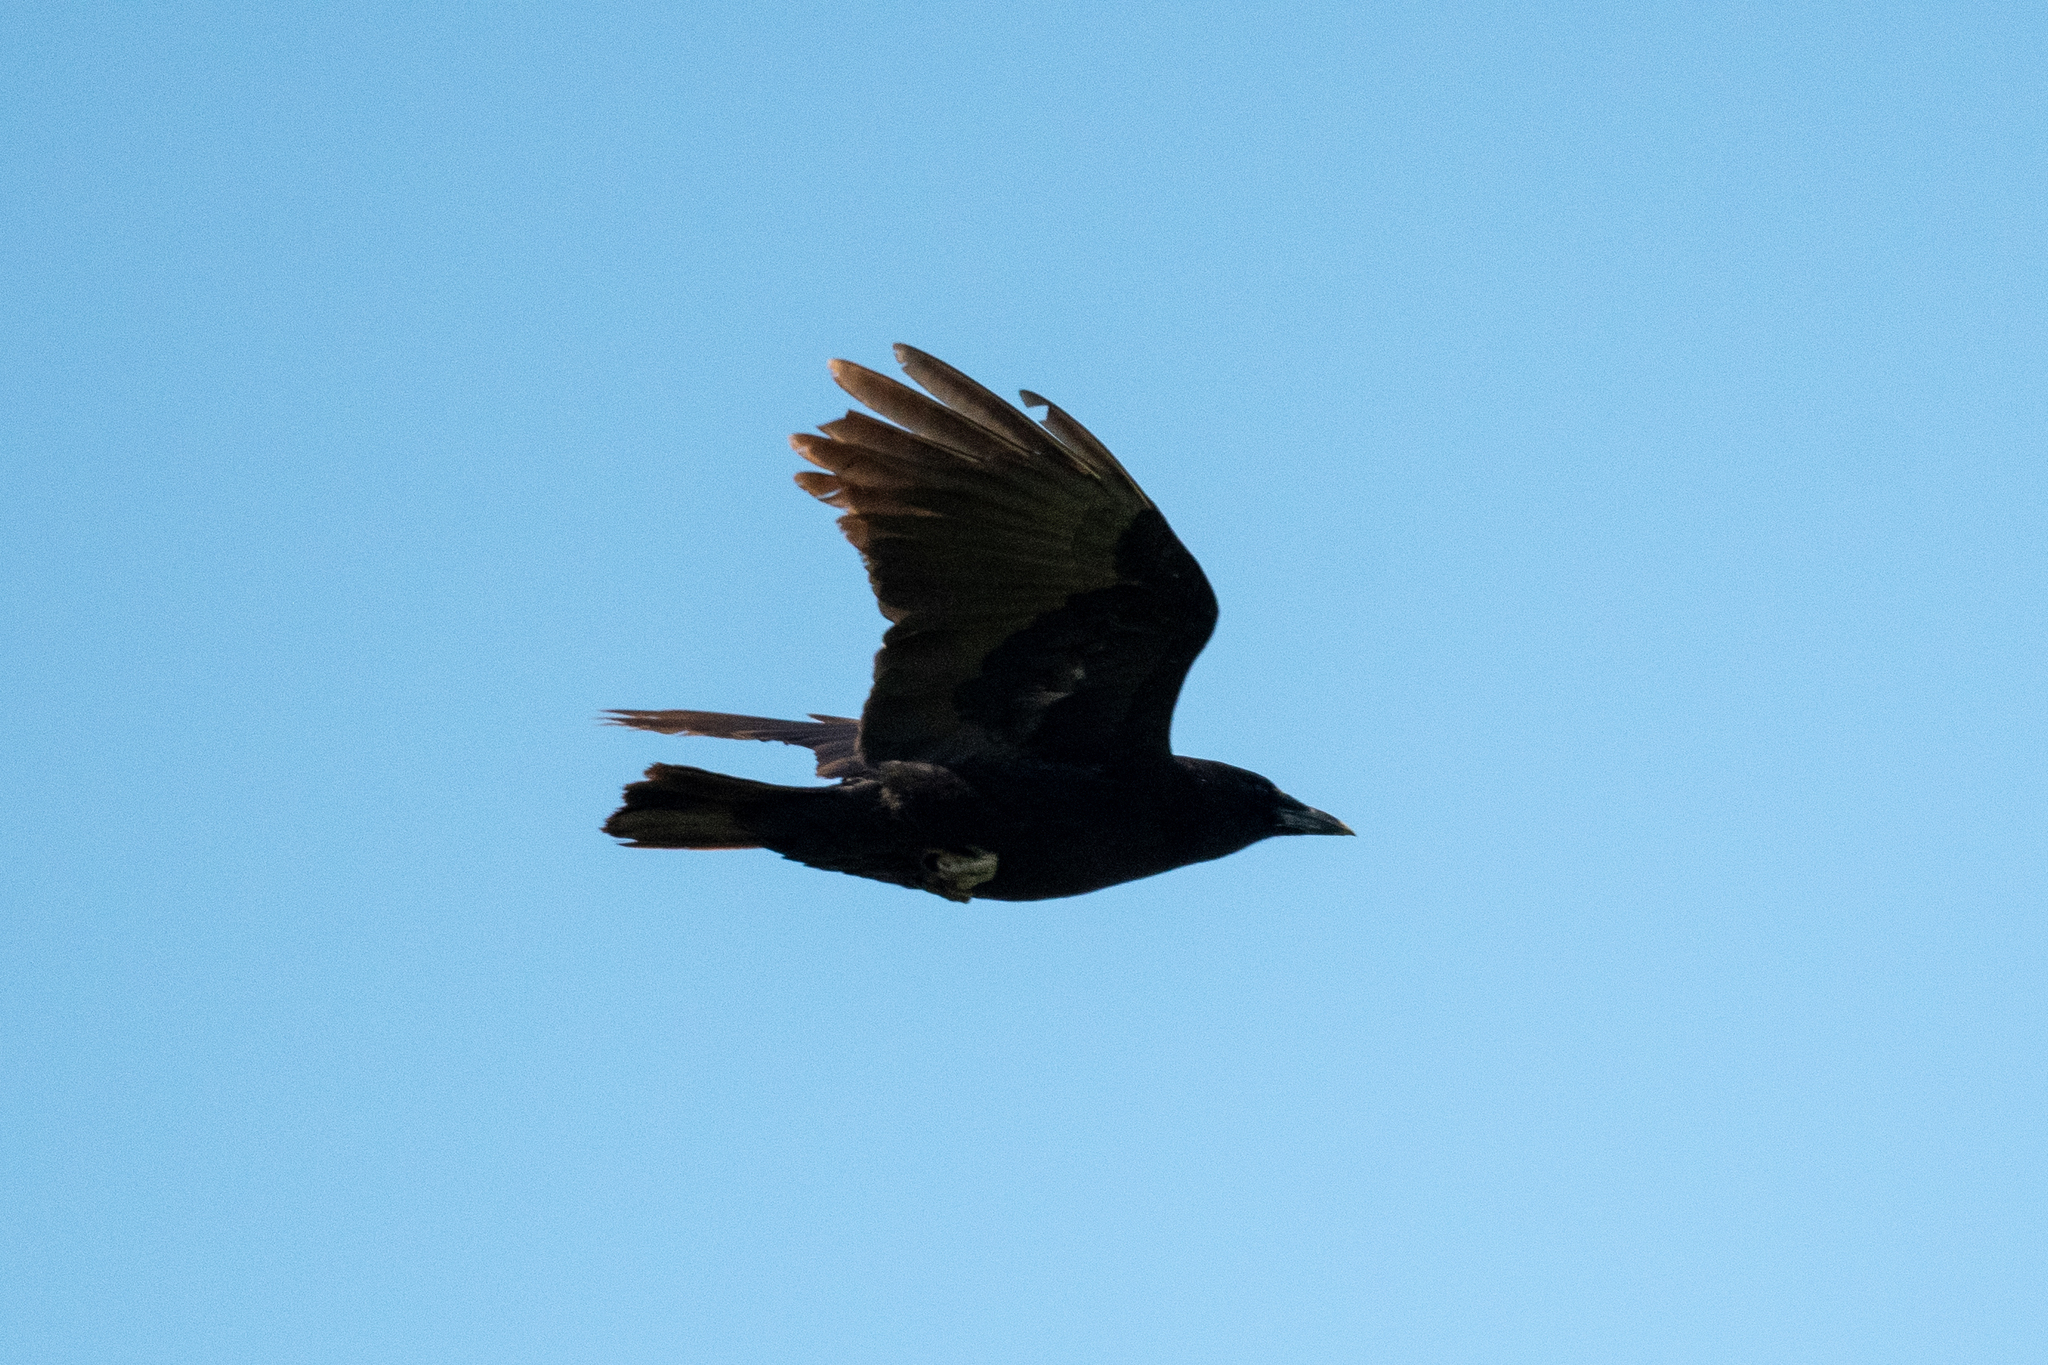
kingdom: Animalia
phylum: Chordata
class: Aves
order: Passeriformes
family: Corvidae
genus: Corvus
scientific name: Corvus brachyrhynchos
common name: American crow
